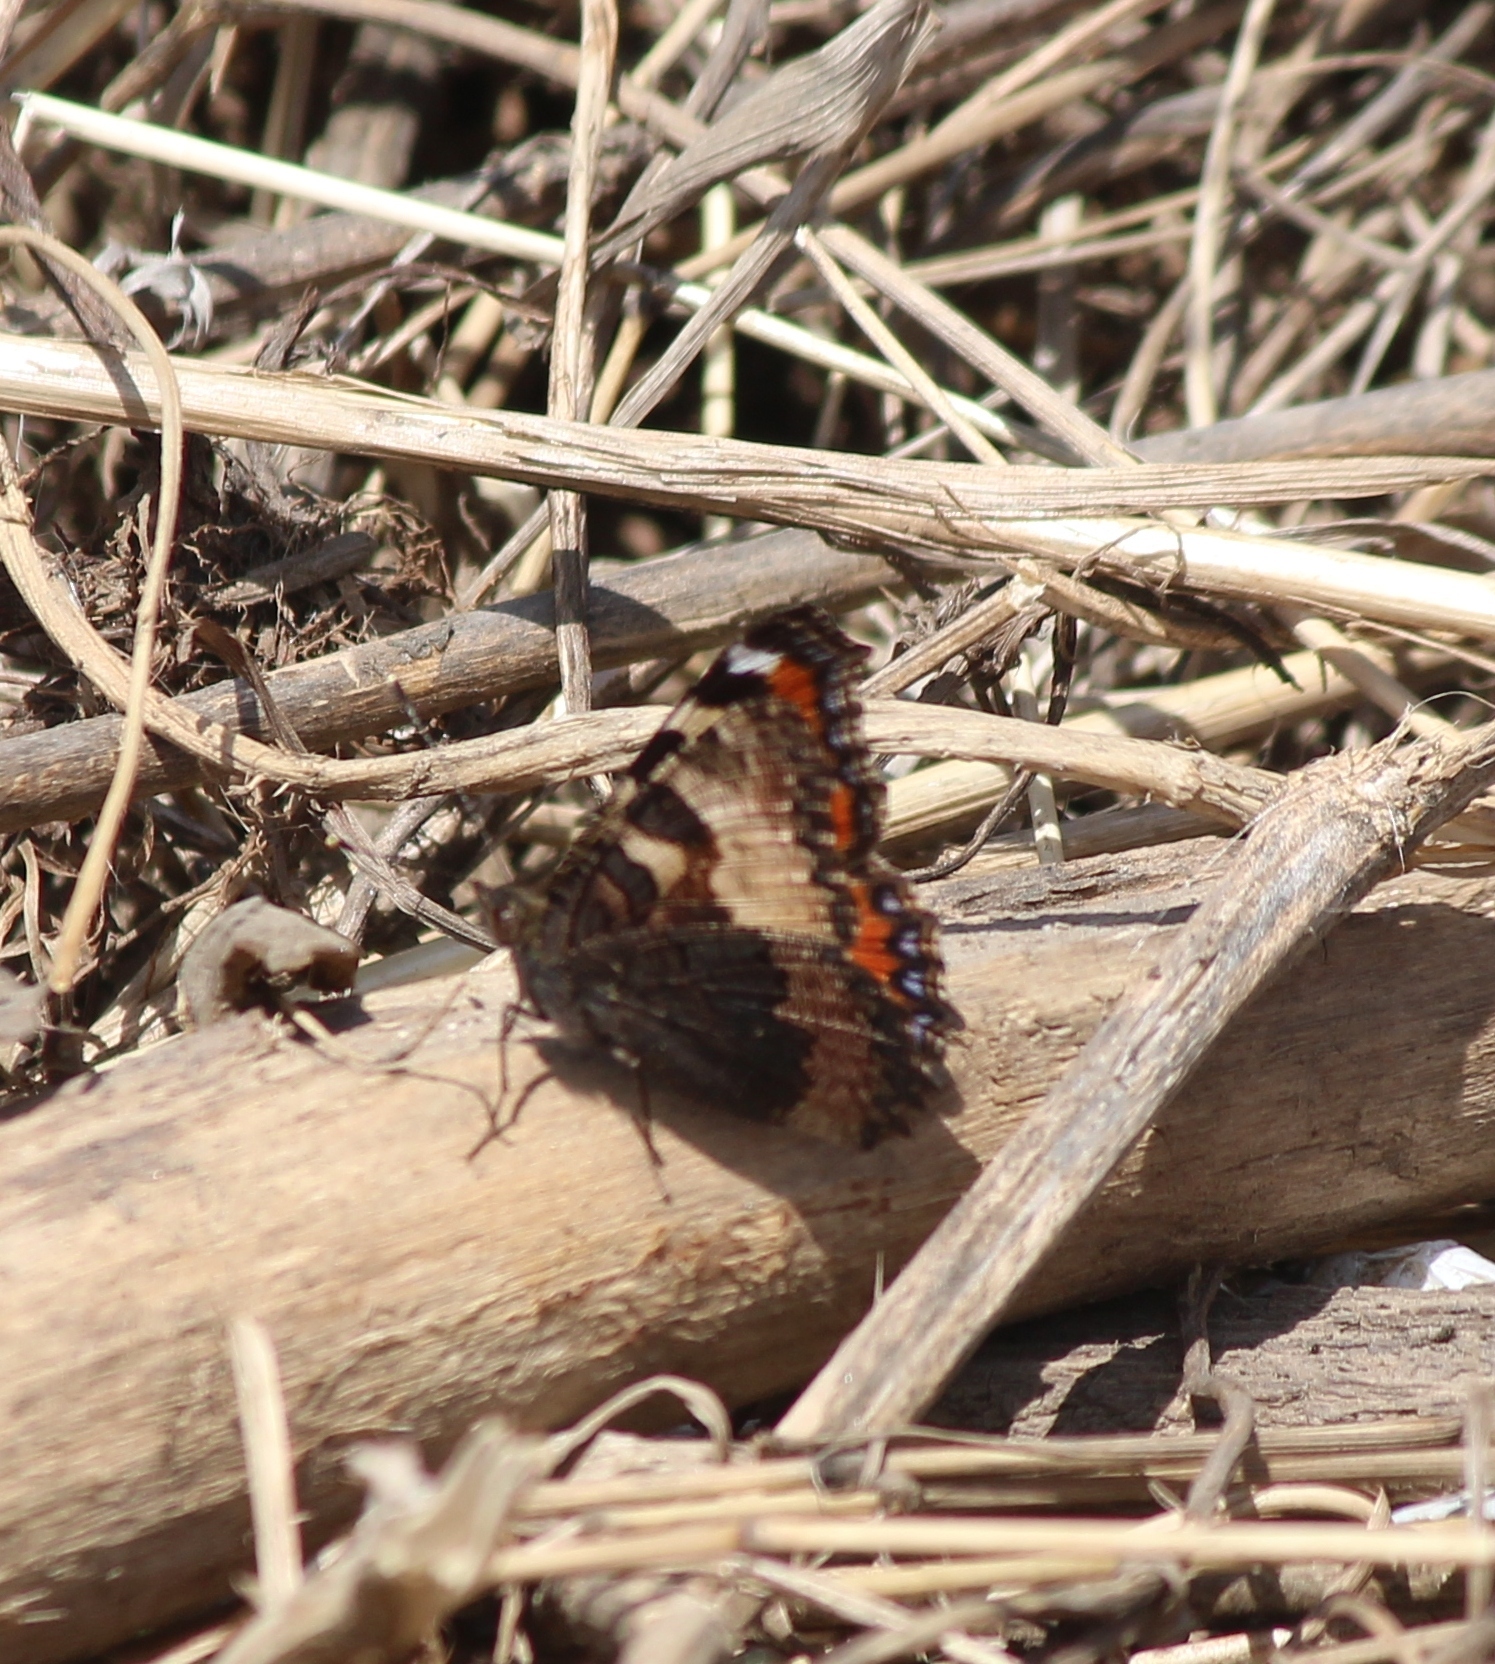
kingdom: Animalia
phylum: Arthropoda
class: Insecta
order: Lepidoptera
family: Nymphalidae
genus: Aglais
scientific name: Aglais urticae
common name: Small tortoiseshell
